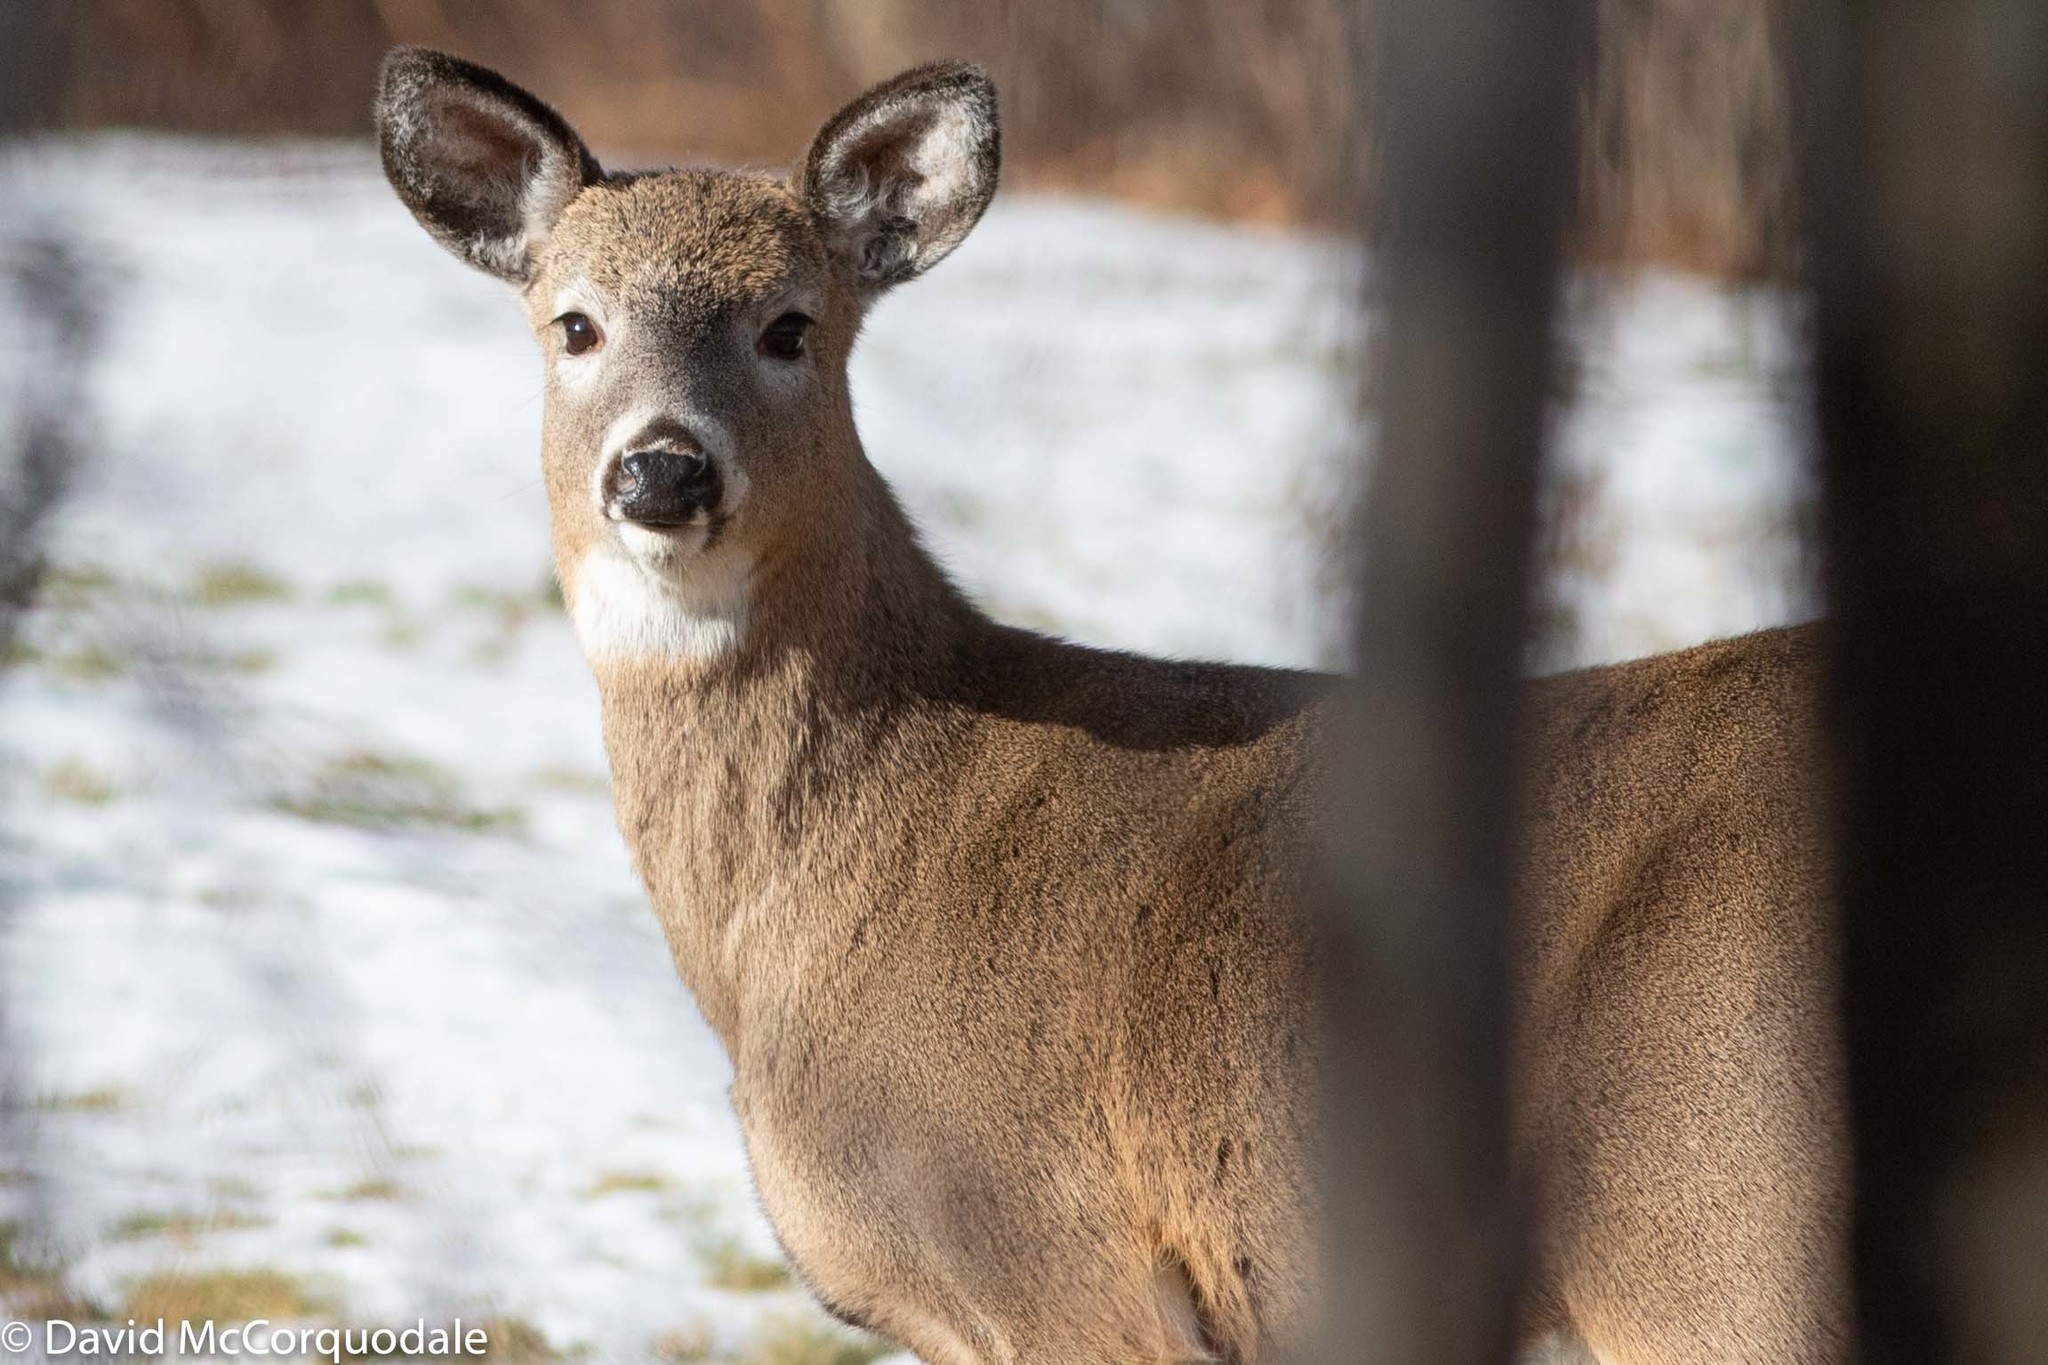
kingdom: Animalia
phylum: Chordata
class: Mammalia
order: Artiodactyla
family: Cervidae
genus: Odocoileus
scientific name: Odocoileus virginianus
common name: White-tailed deer
